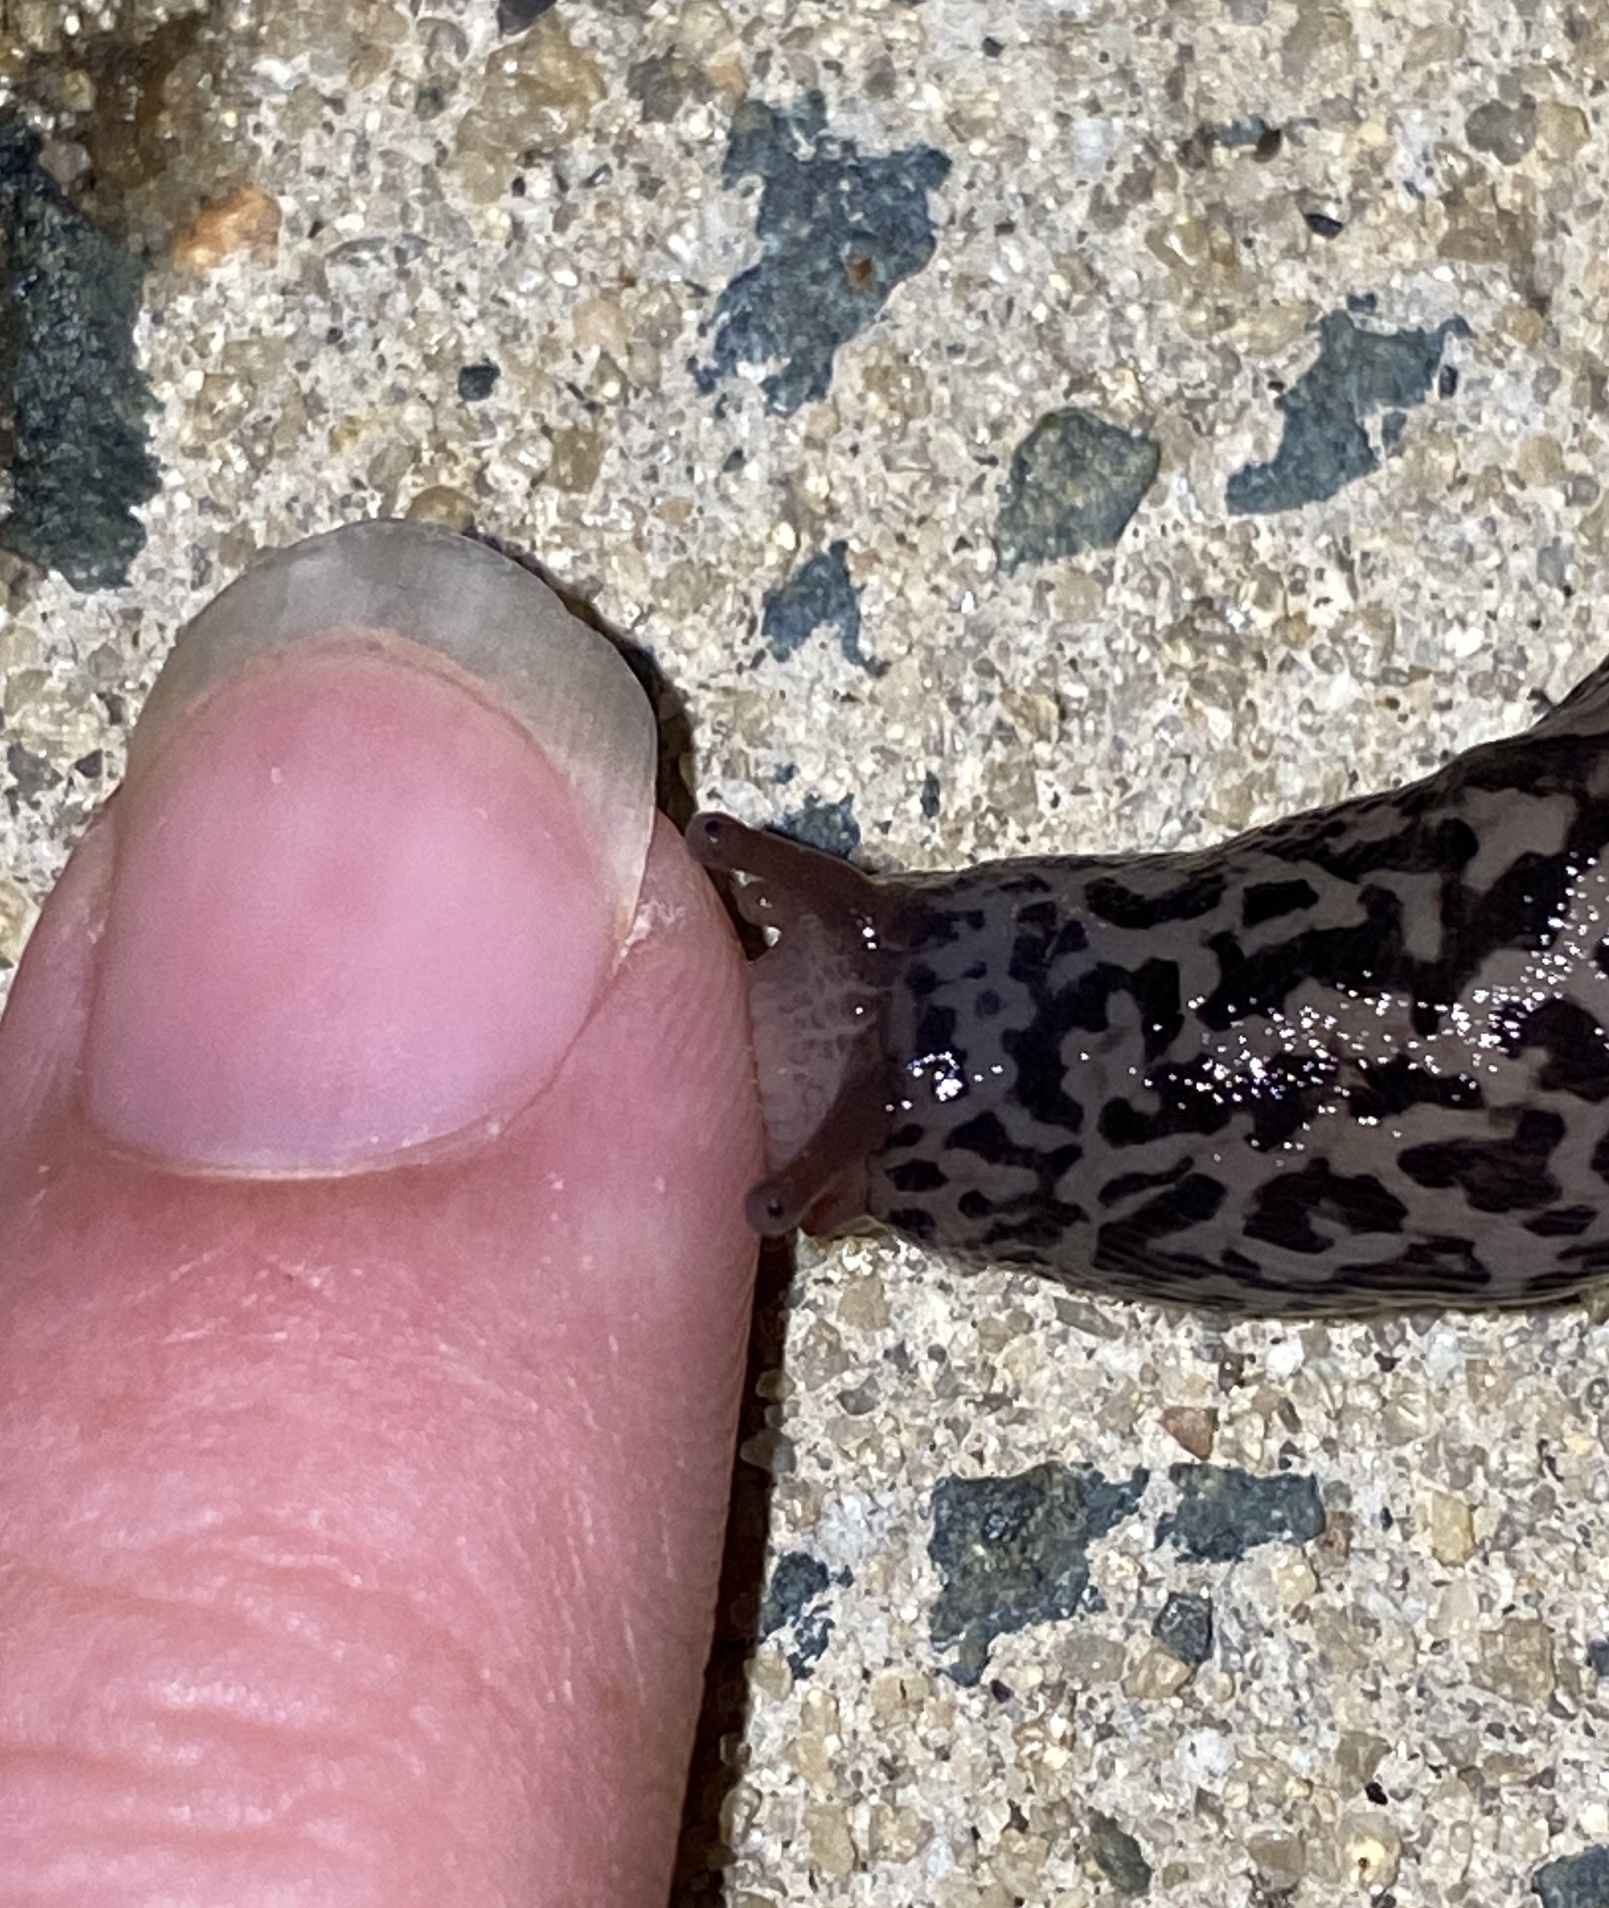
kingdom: Animalia
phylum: Mollusca
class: Gastropoda
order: Stylommatophora
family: Limacidae
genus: Limax
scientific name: Limax maximus
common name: Great grey slug
